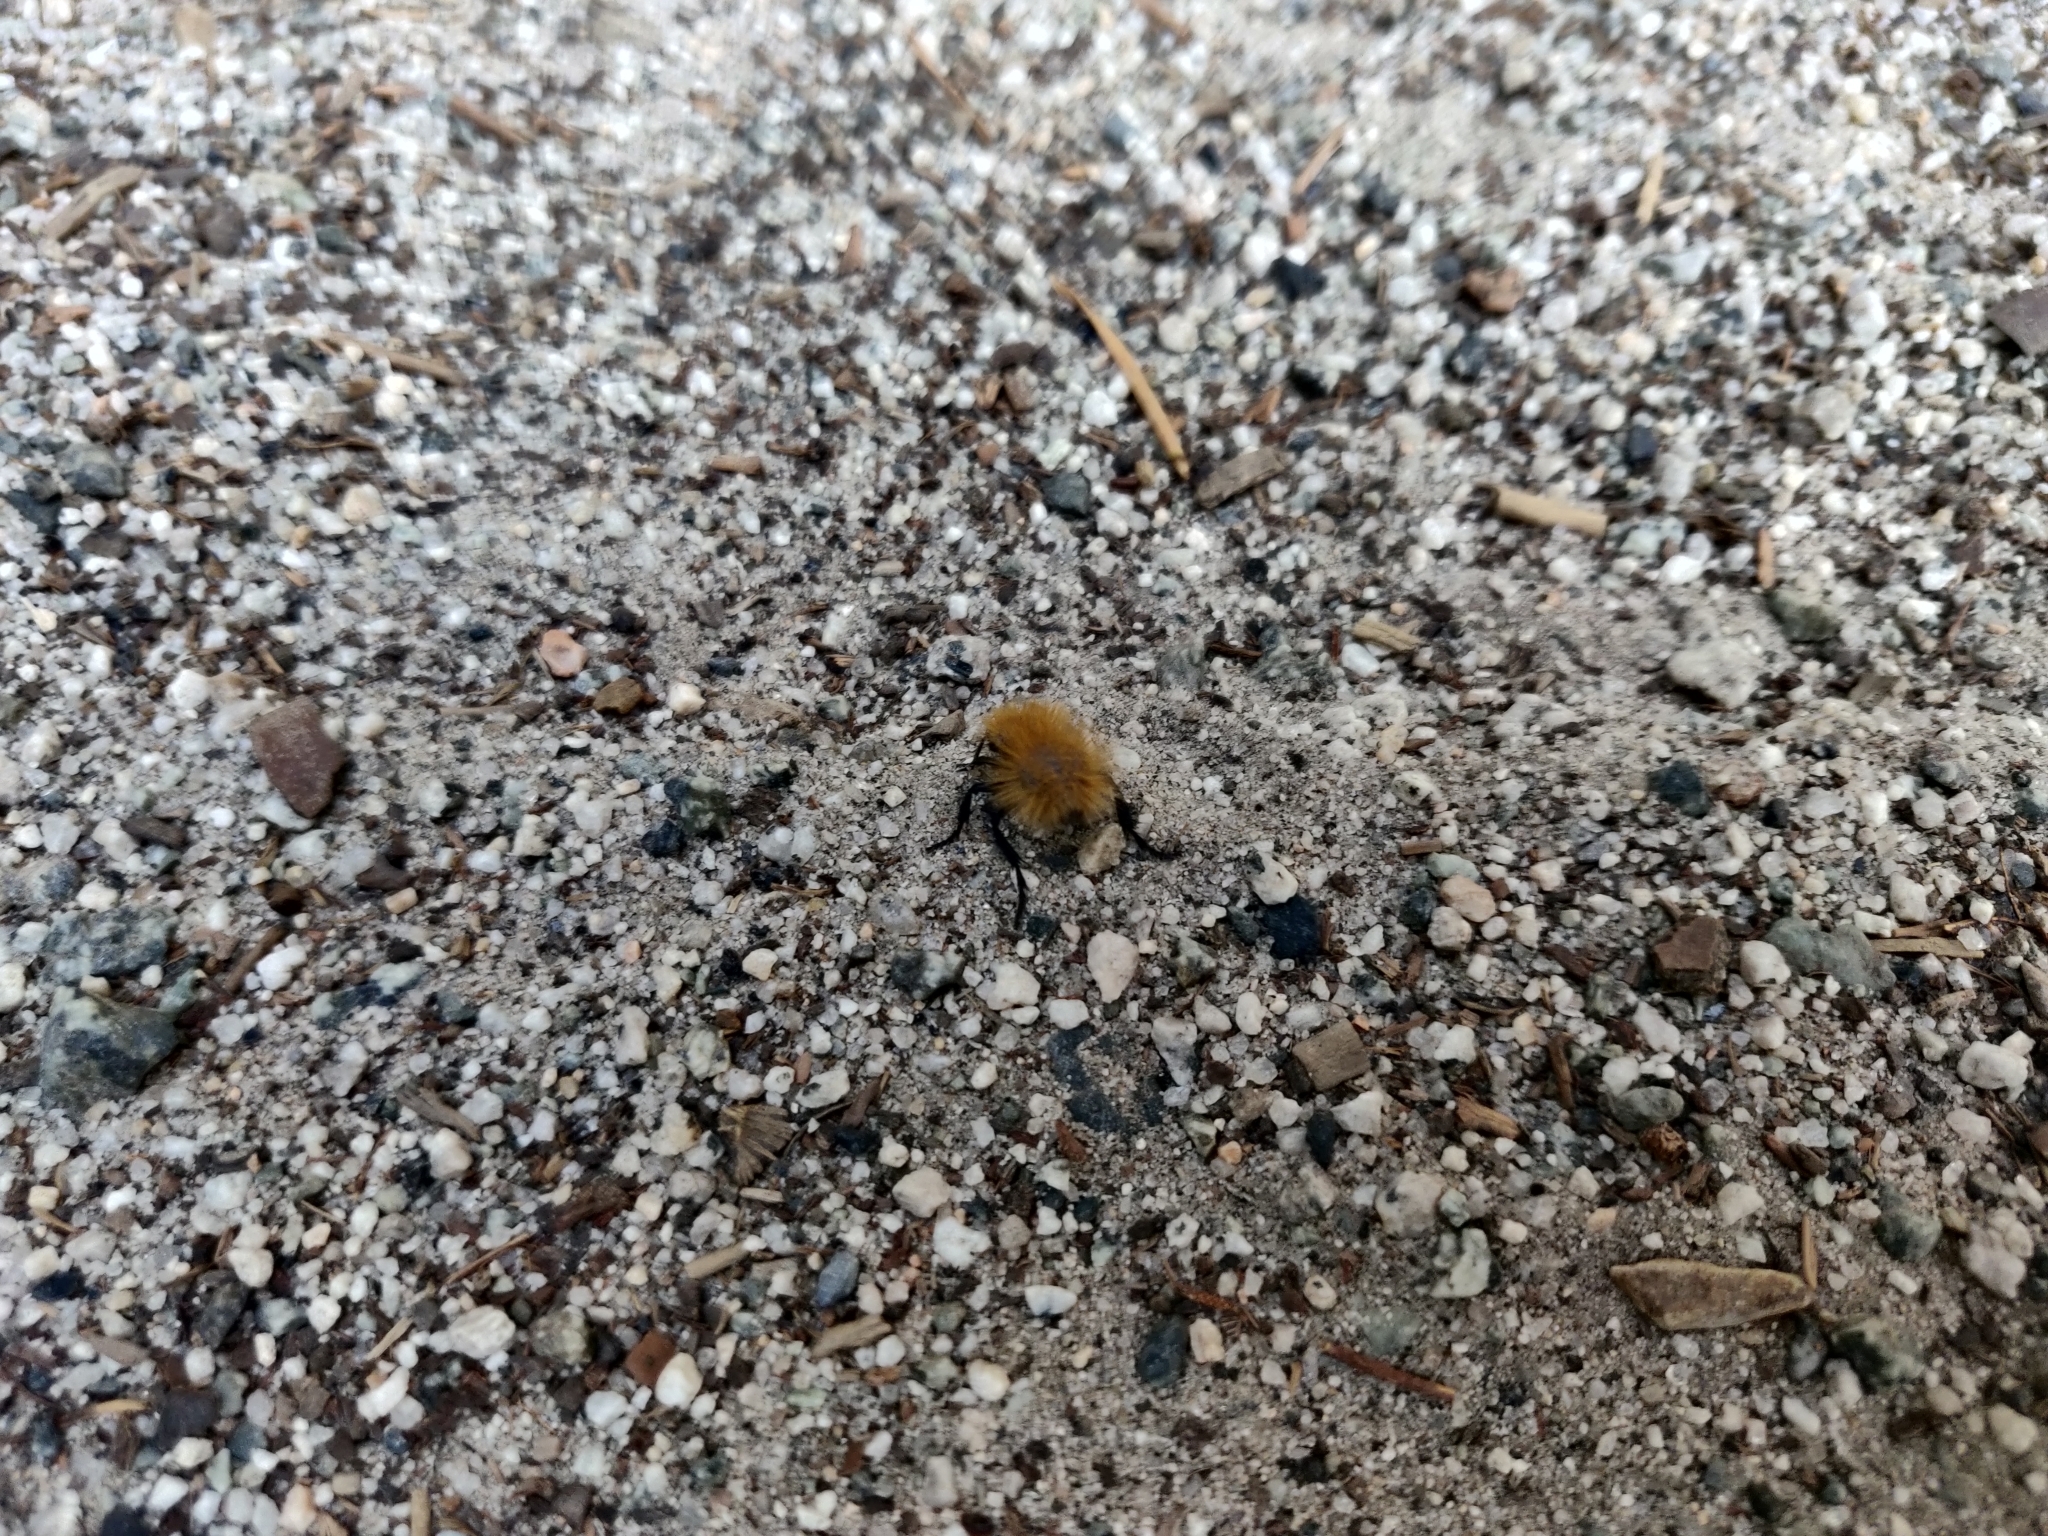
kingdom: Animalia
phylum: Arthropoda
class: Insecta
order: Hymenoptera
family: Mutillidae
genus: Dasymutilla
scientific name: Dasymutilla
